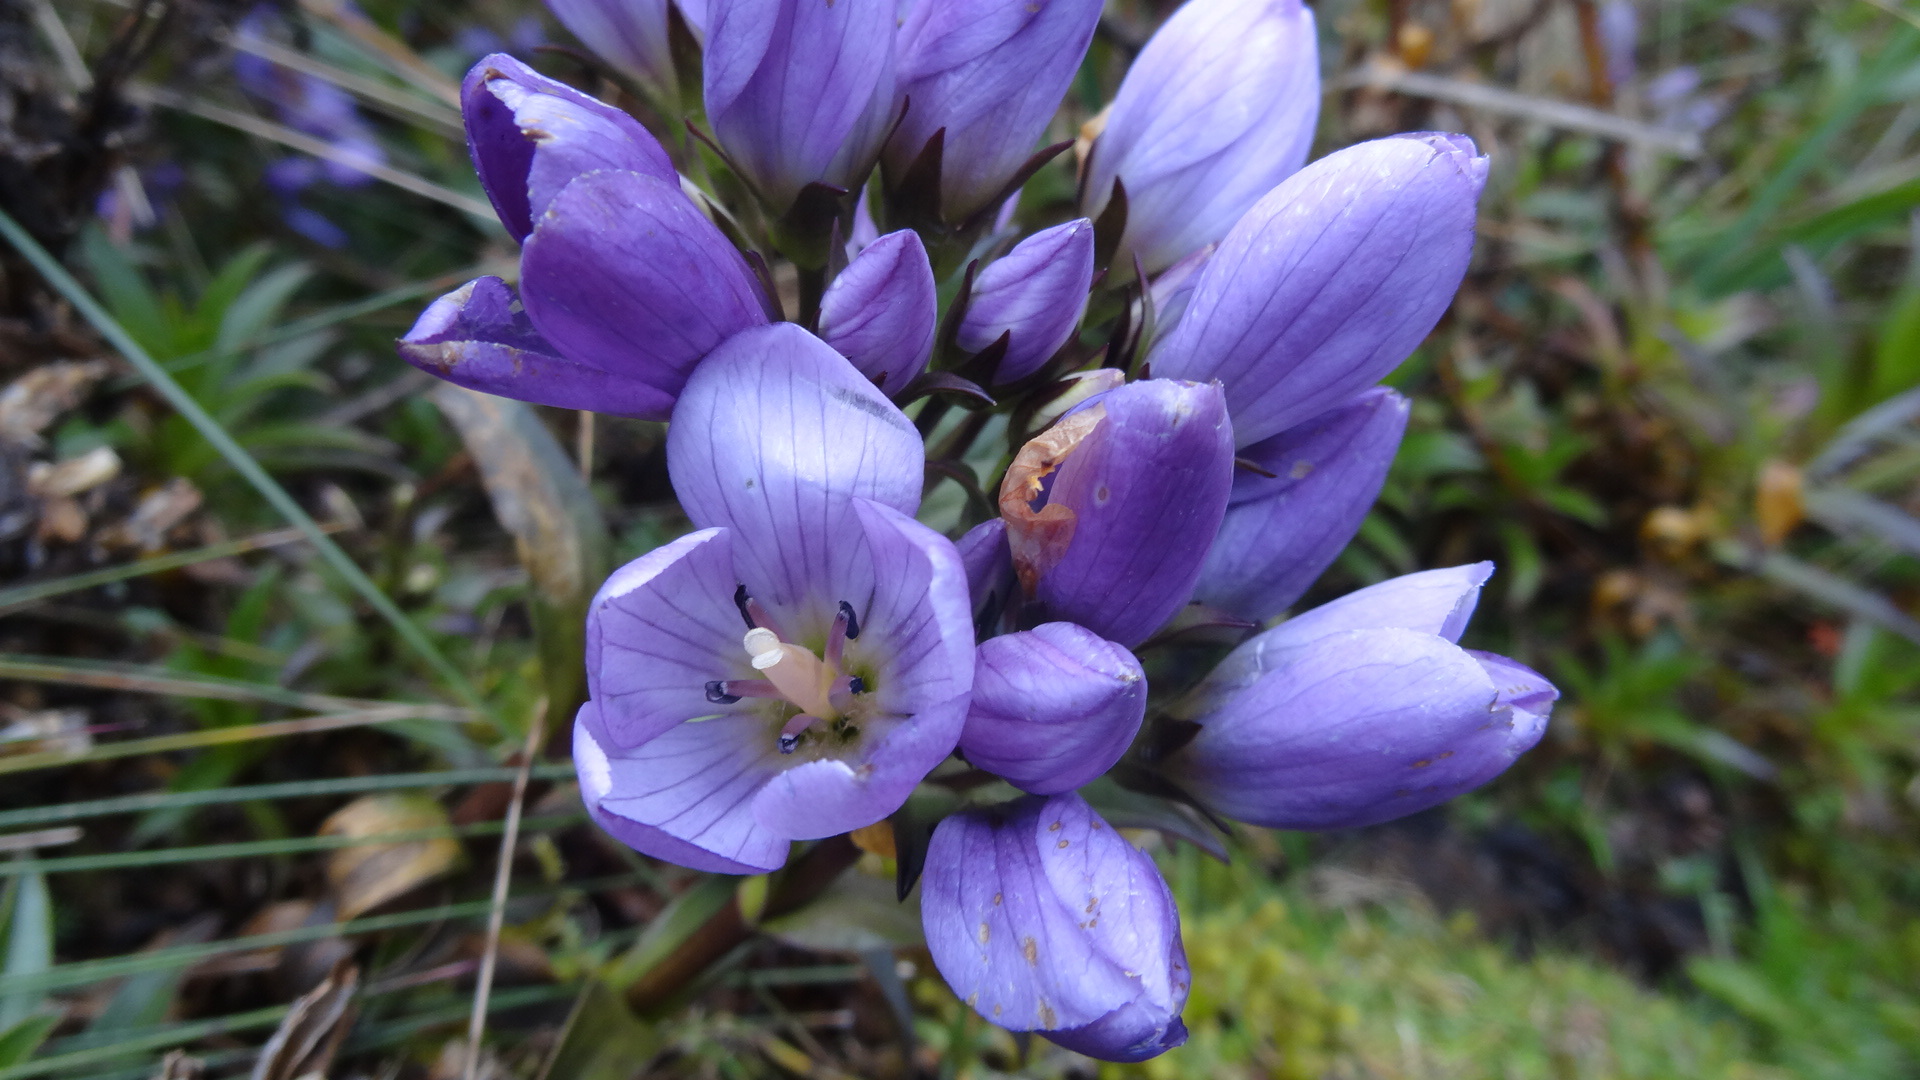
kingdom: Plantae
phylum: Tracheophyta
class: Magnoliopsida
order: Gentianales
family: Gentianaceae
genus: Gentianella
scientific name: Gentianella foliosa
